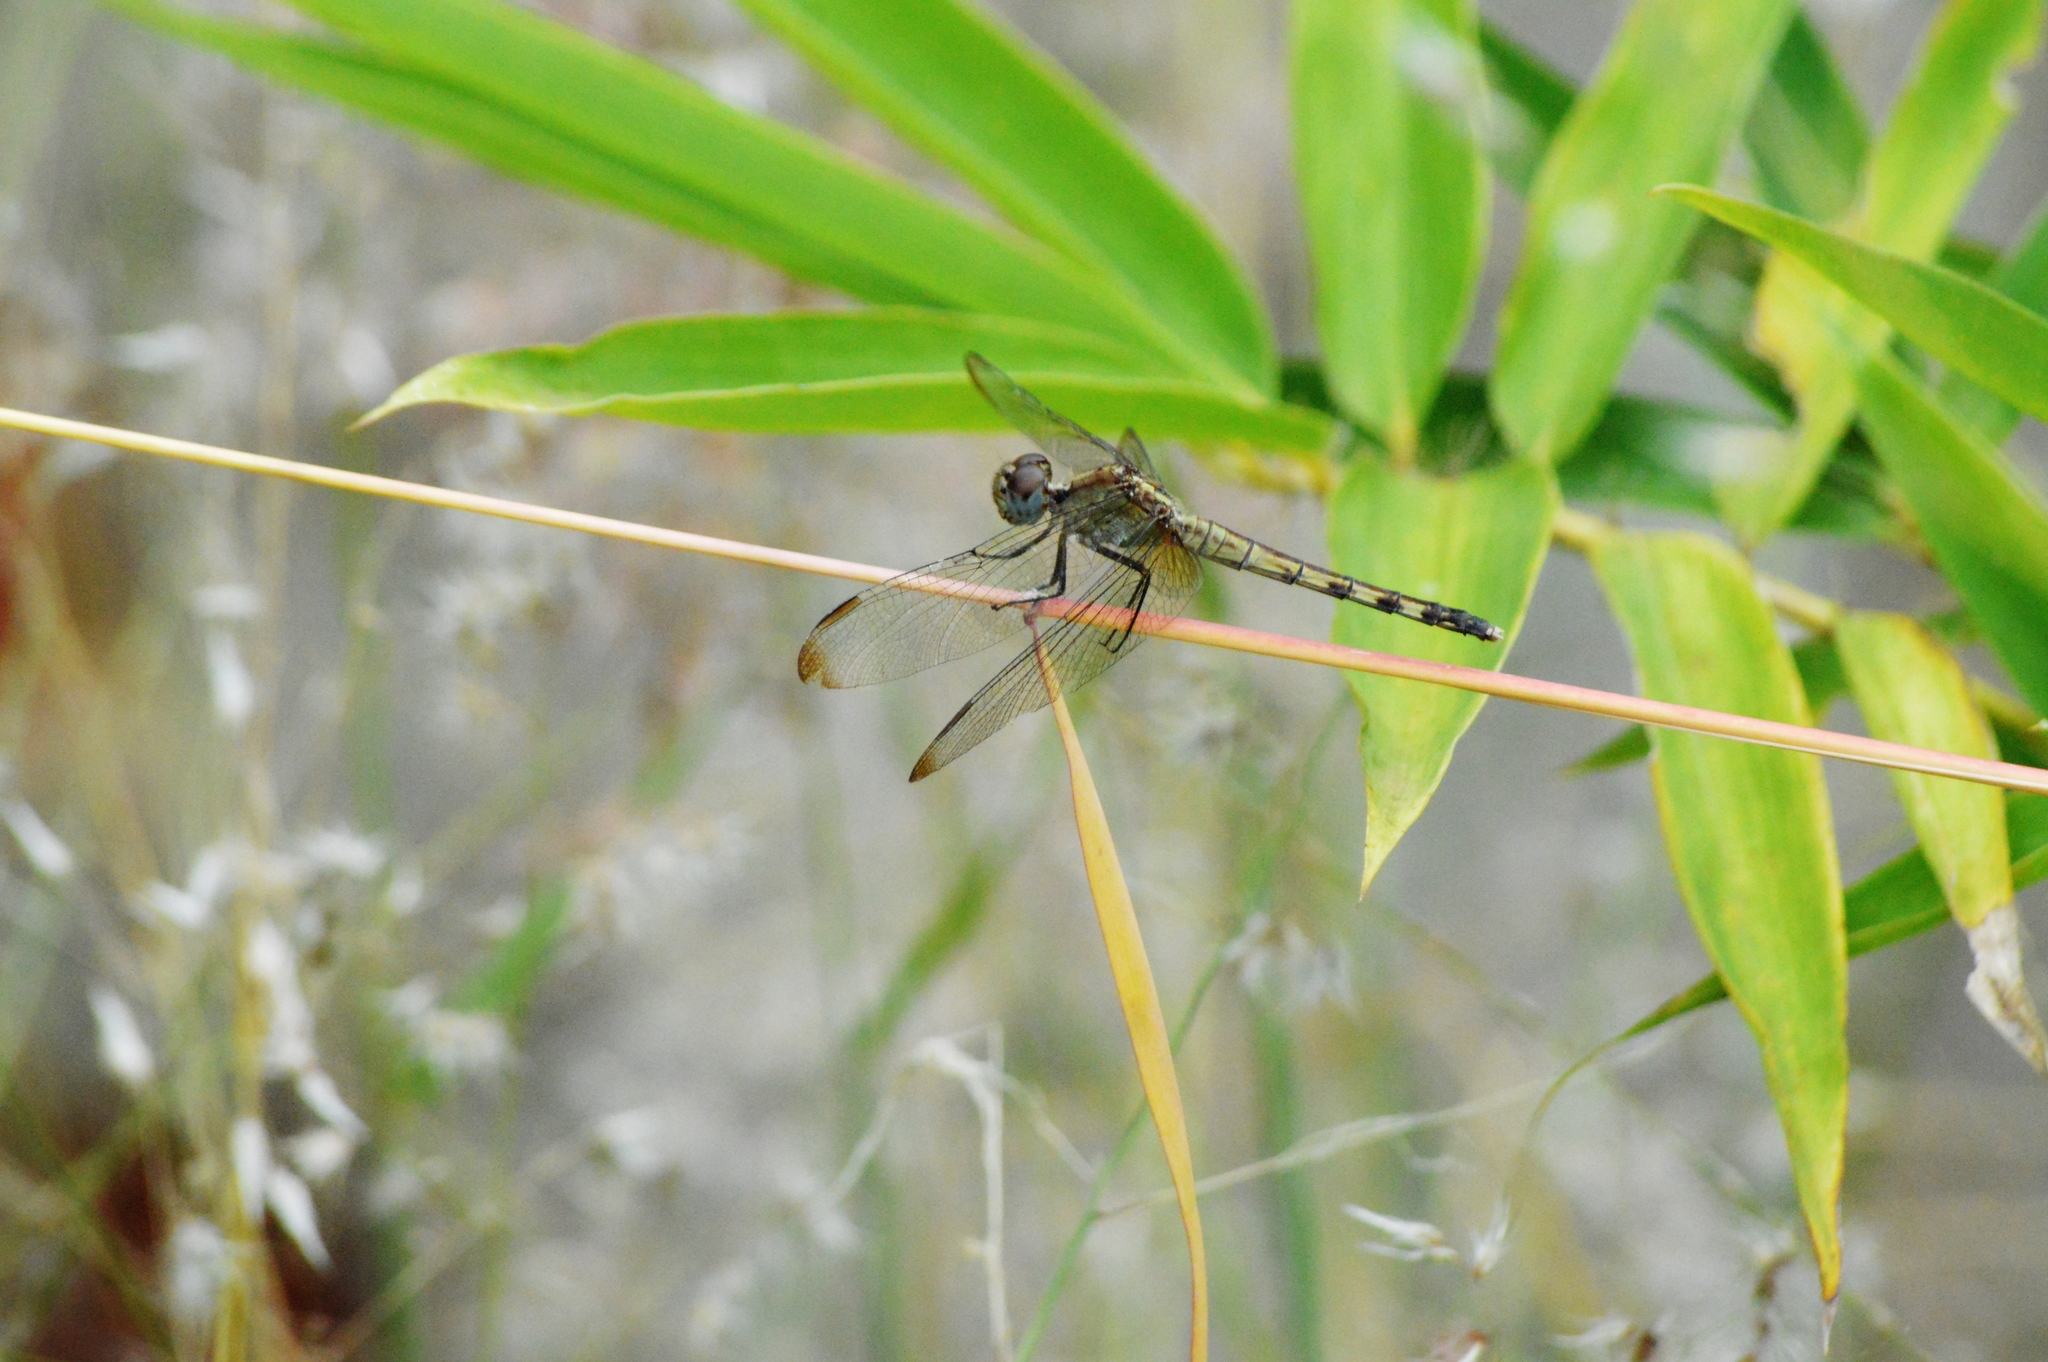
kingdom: Animalia
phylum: Arthropoda
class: Insecta
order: Odonata
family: Libellulidae
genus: Erythrodiplax
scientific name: Erythrodiplax umbrata
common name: Band-winged dragonlet
